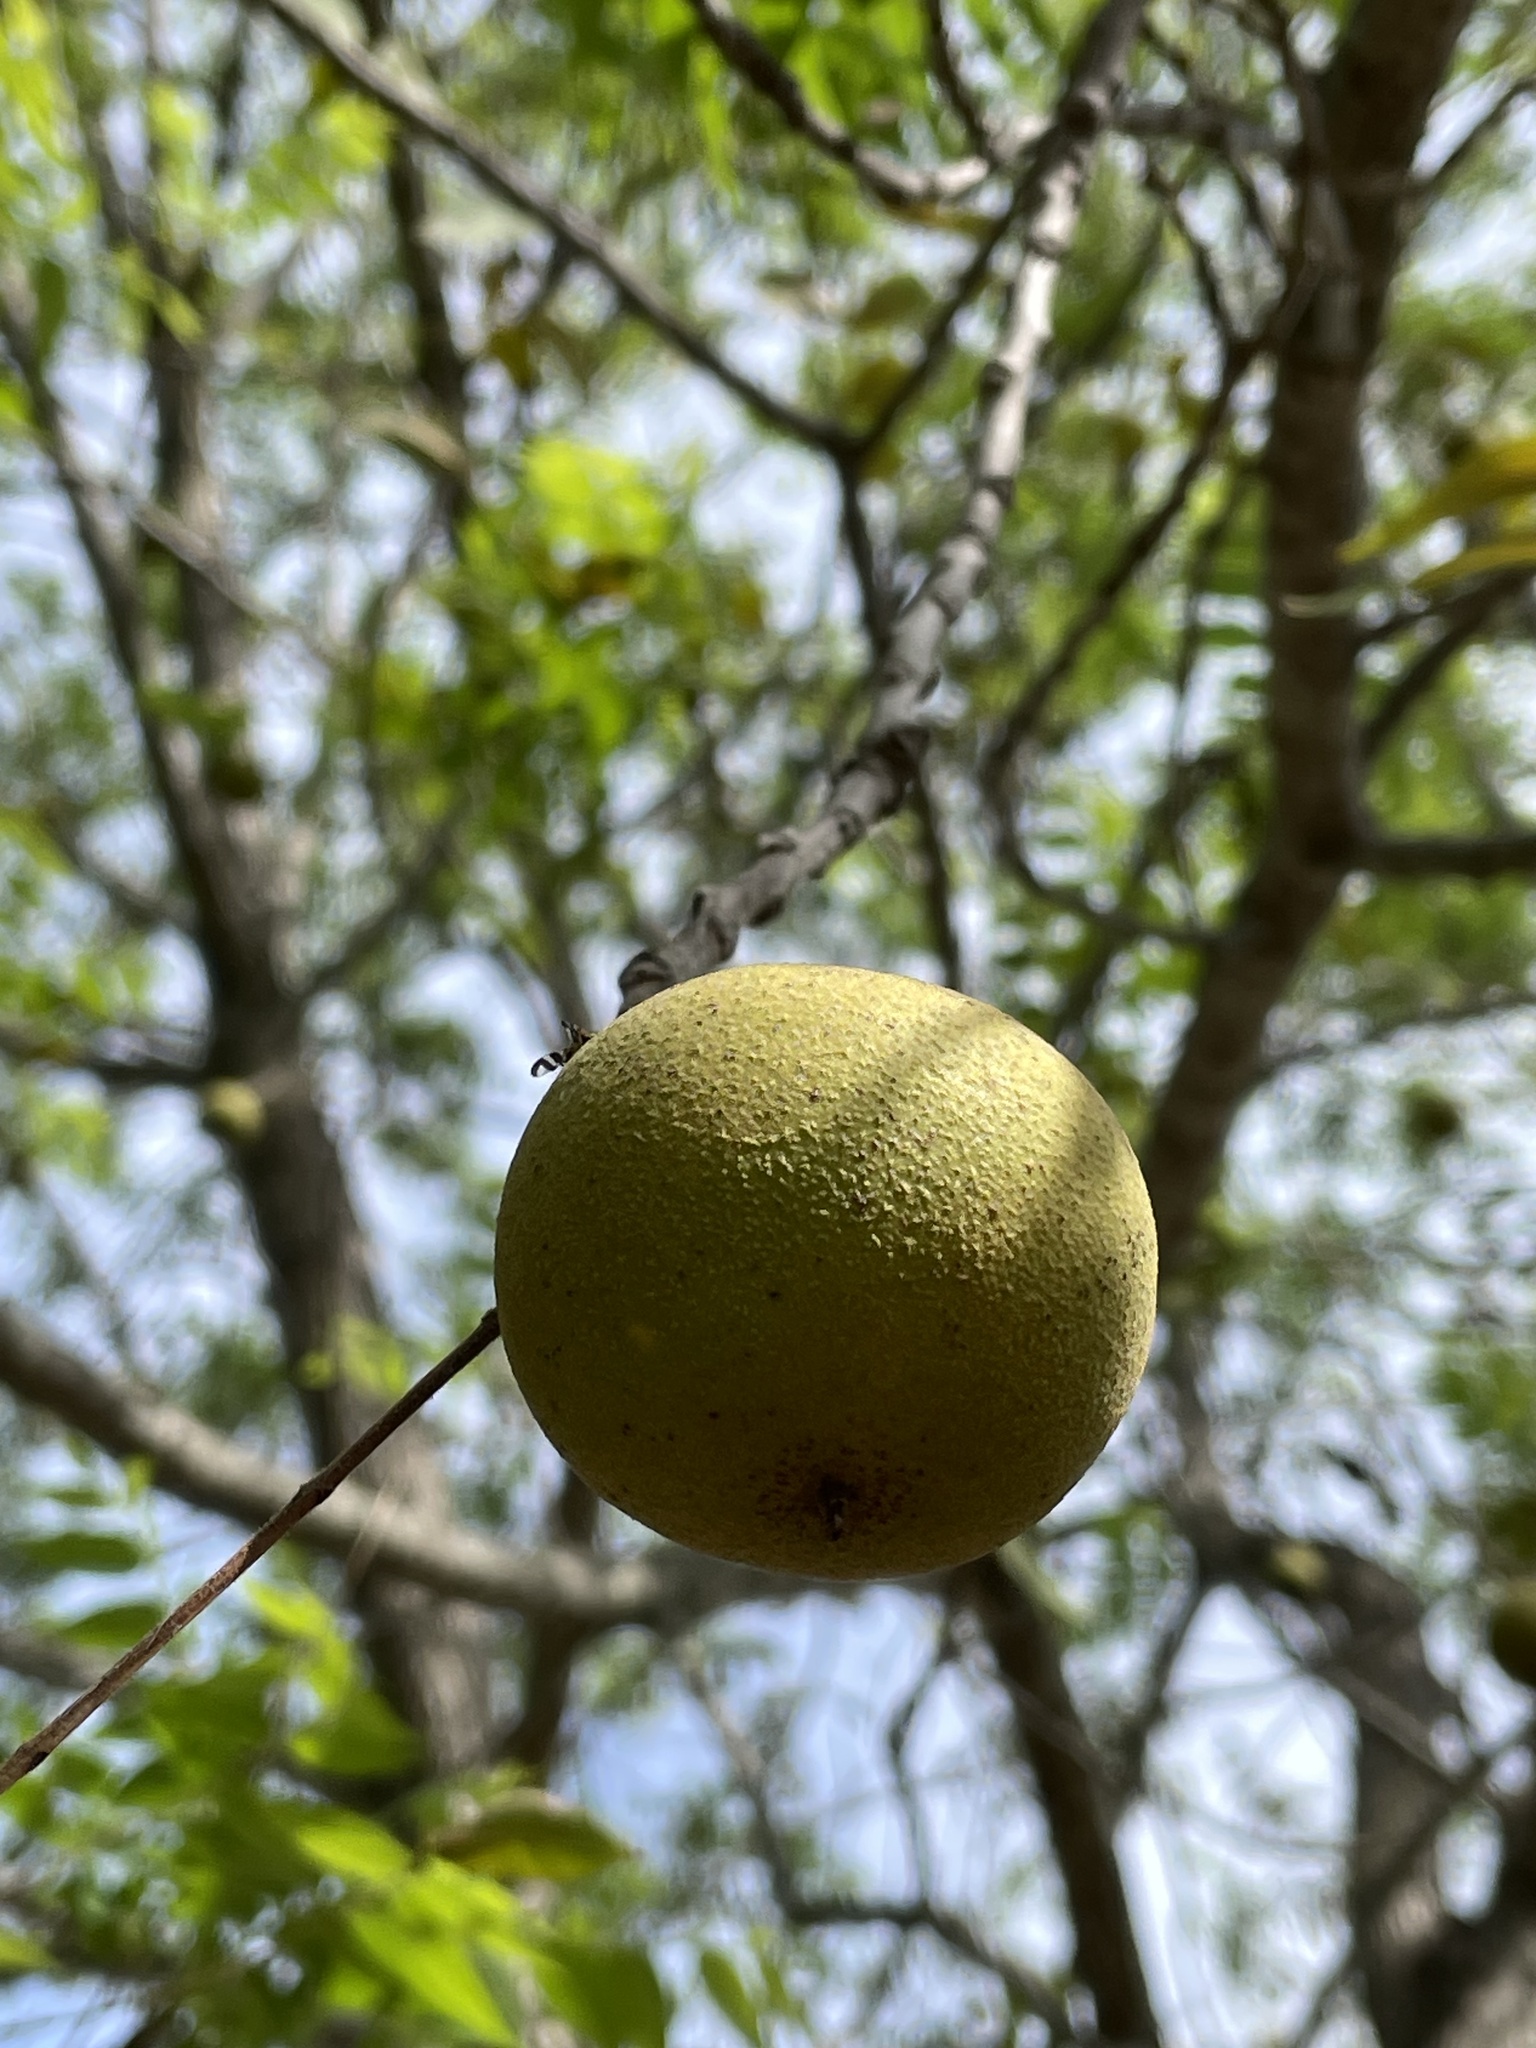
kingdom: Plantae
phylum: Tracheophyta
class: Magnoliopsida
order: Fagales
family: Juglandaceae
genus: Juglans
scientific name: Juglans nigra
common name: Black walnut
